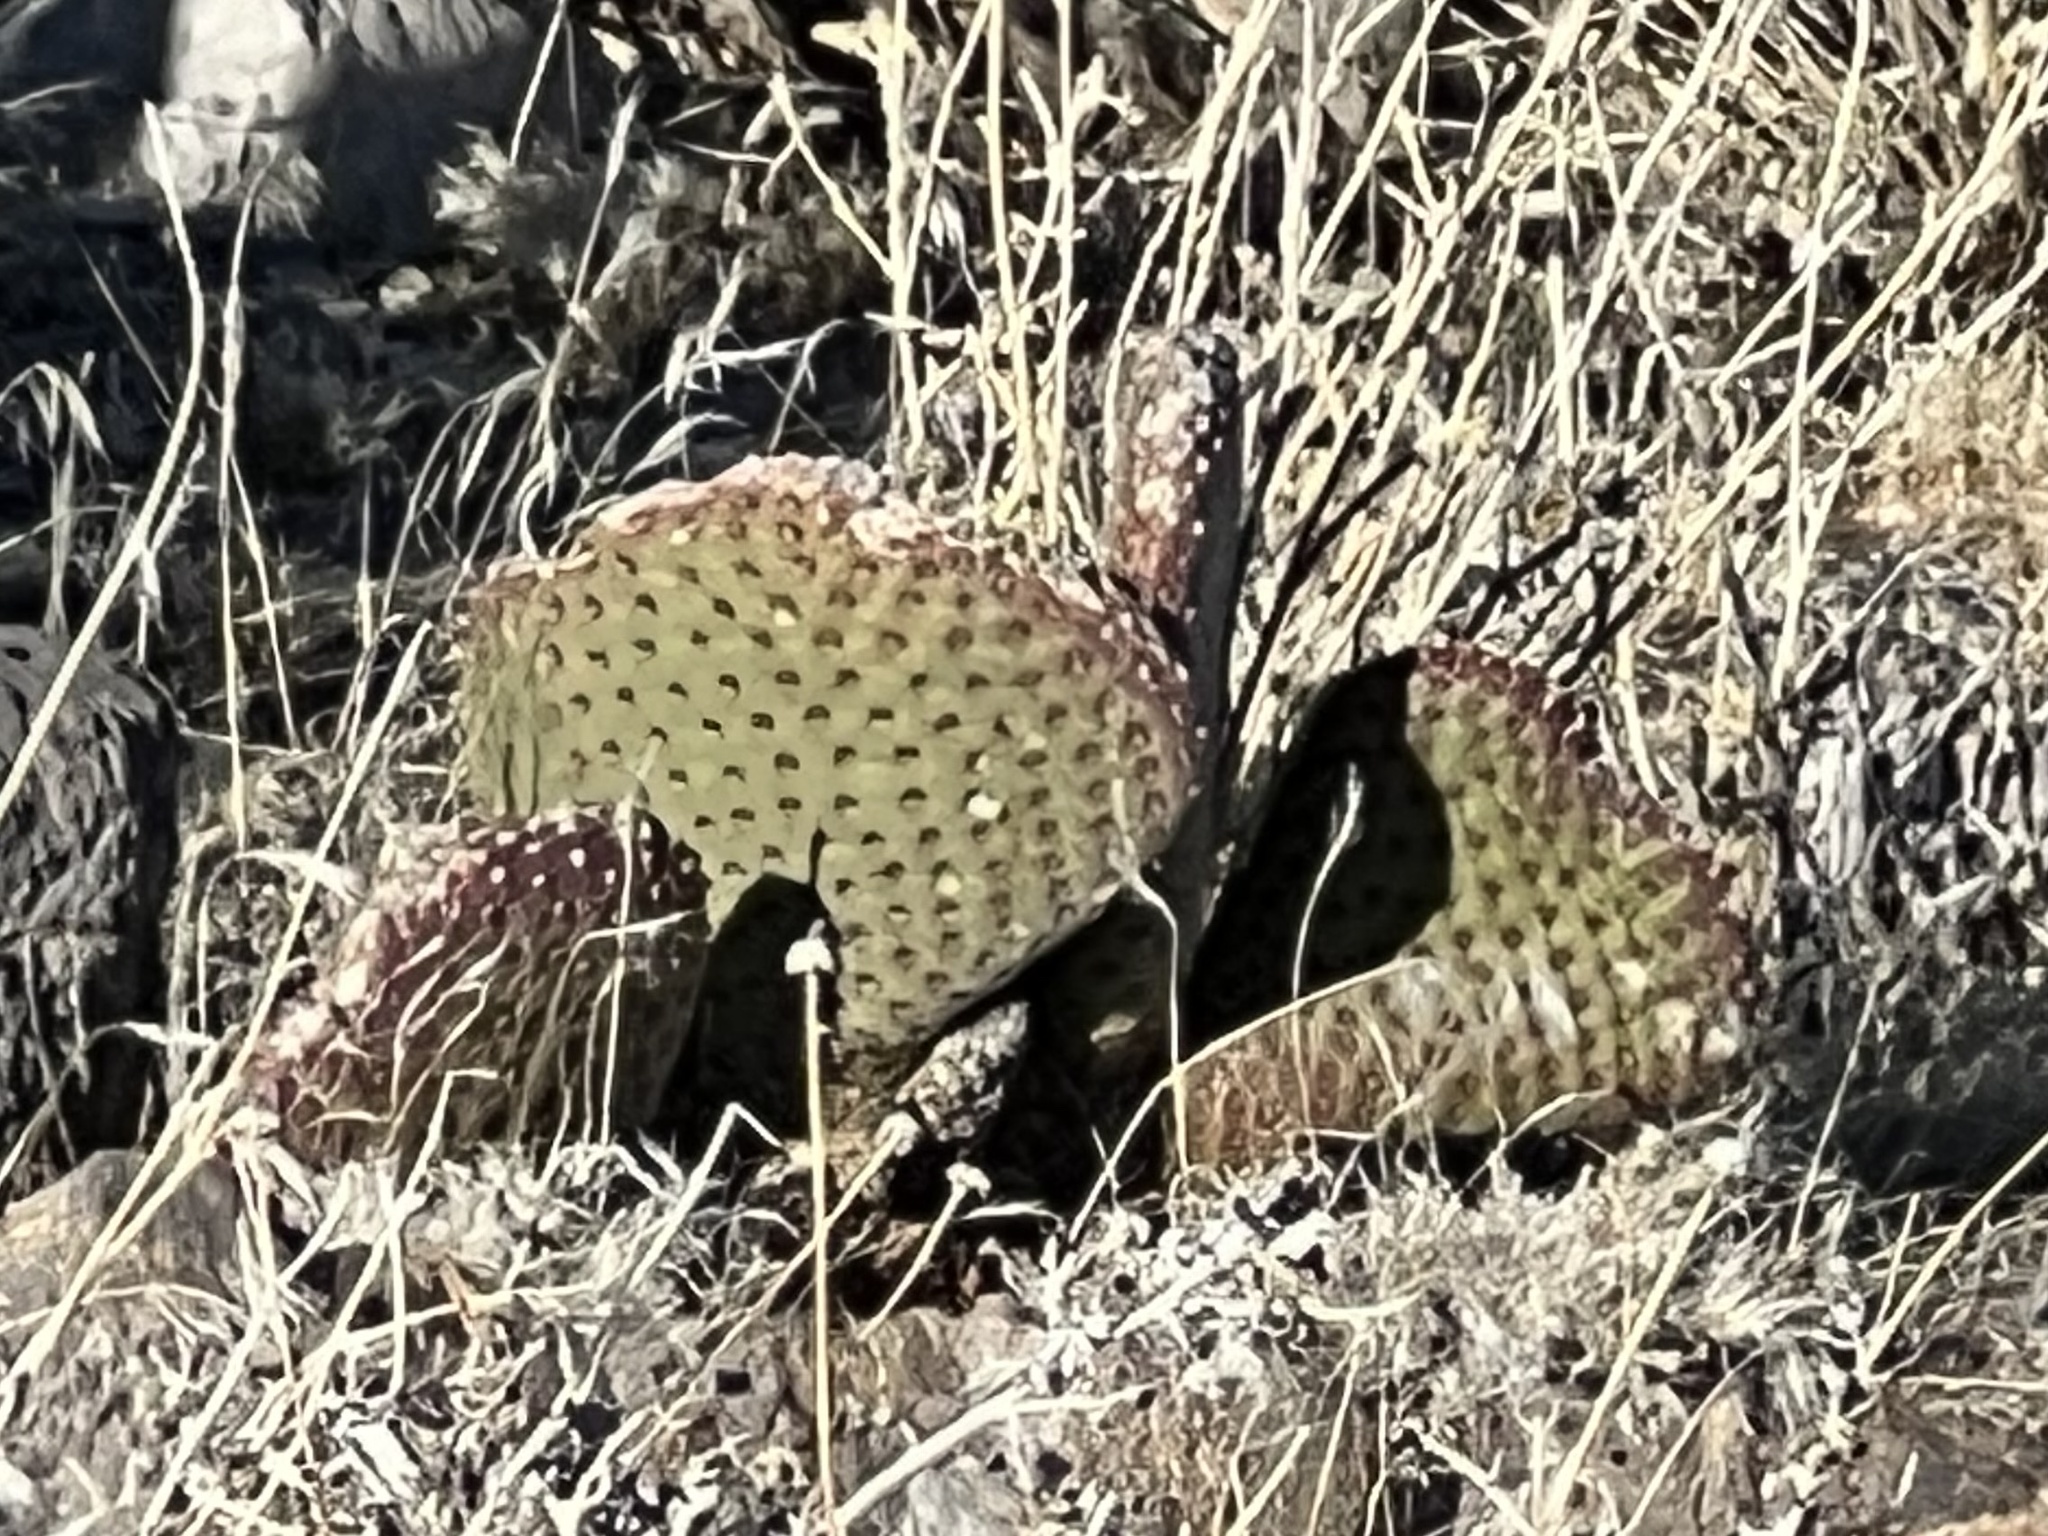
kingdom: Plantae
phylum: Tracheophyta
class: Magnoliopsida
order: Caryophyllales
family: Cactaceae
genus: Opuntia
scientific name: Opuntia basilaris
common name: Beavertail prickly-pear
